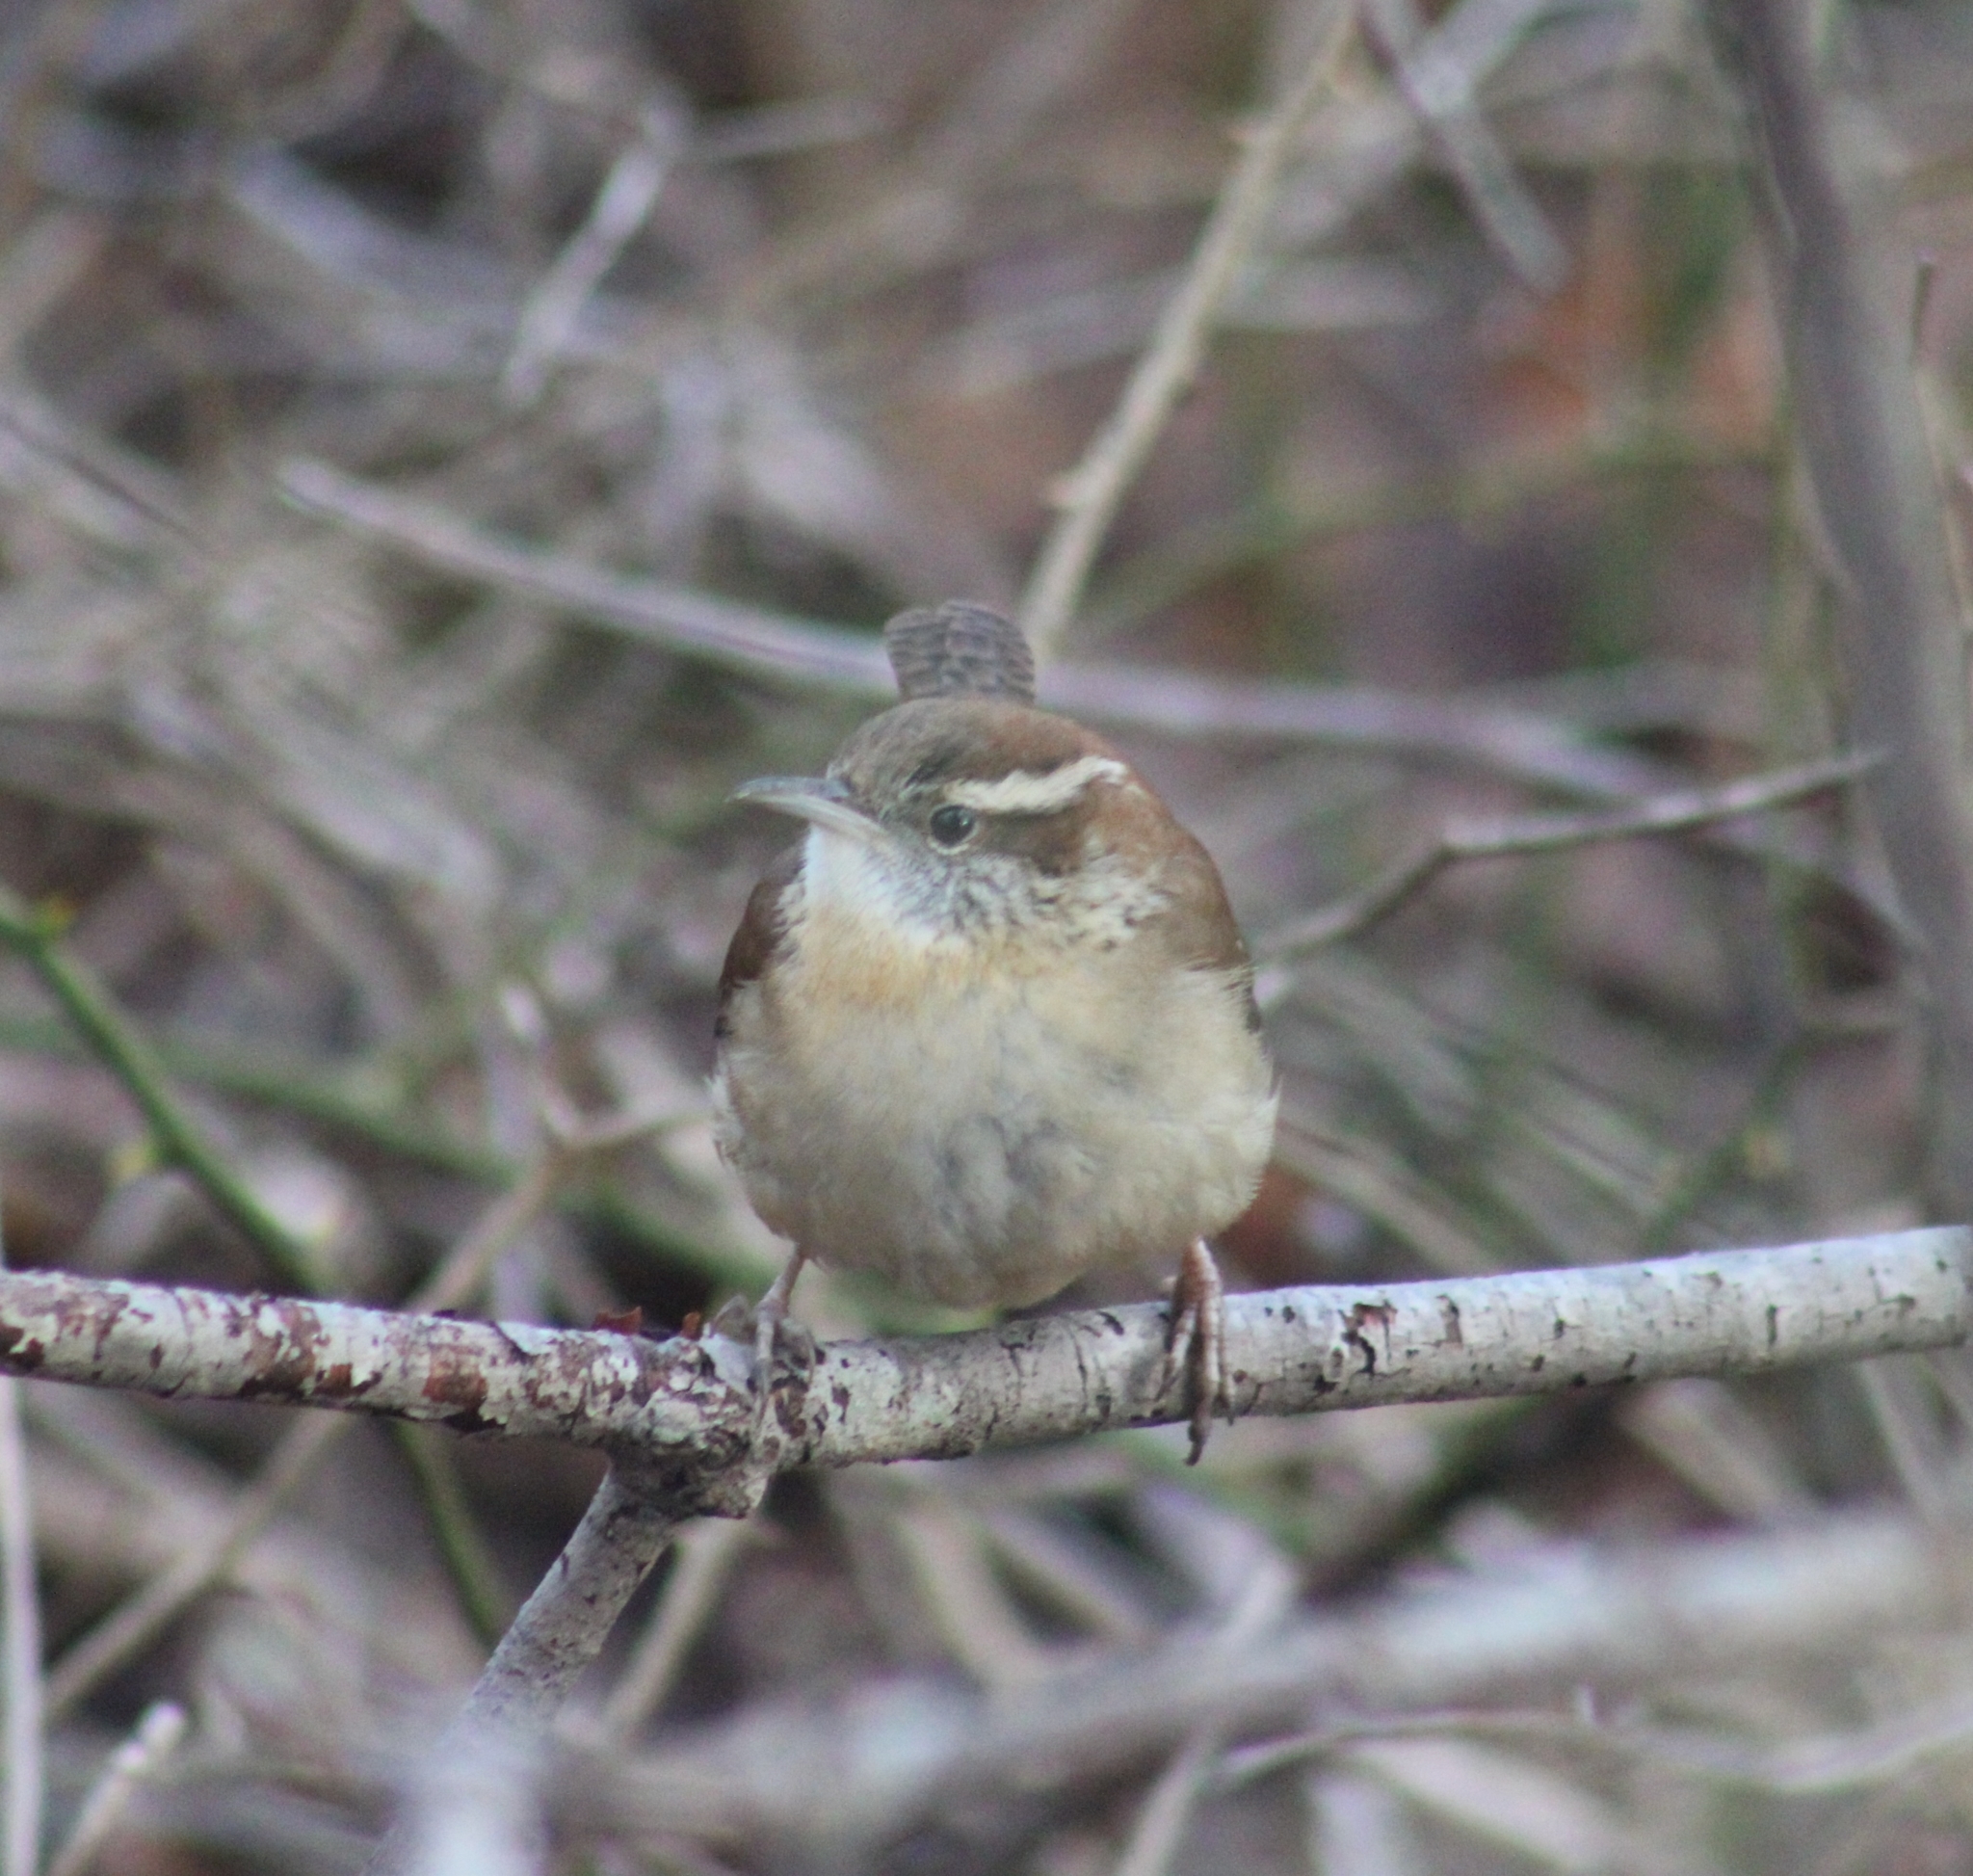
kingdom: Animalia
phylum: Chordata
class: Aves
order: Passeriformes
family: Troglodytidae
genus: Thryothorus
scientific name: Thryothorus ludovicianus
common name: Carolina wren
